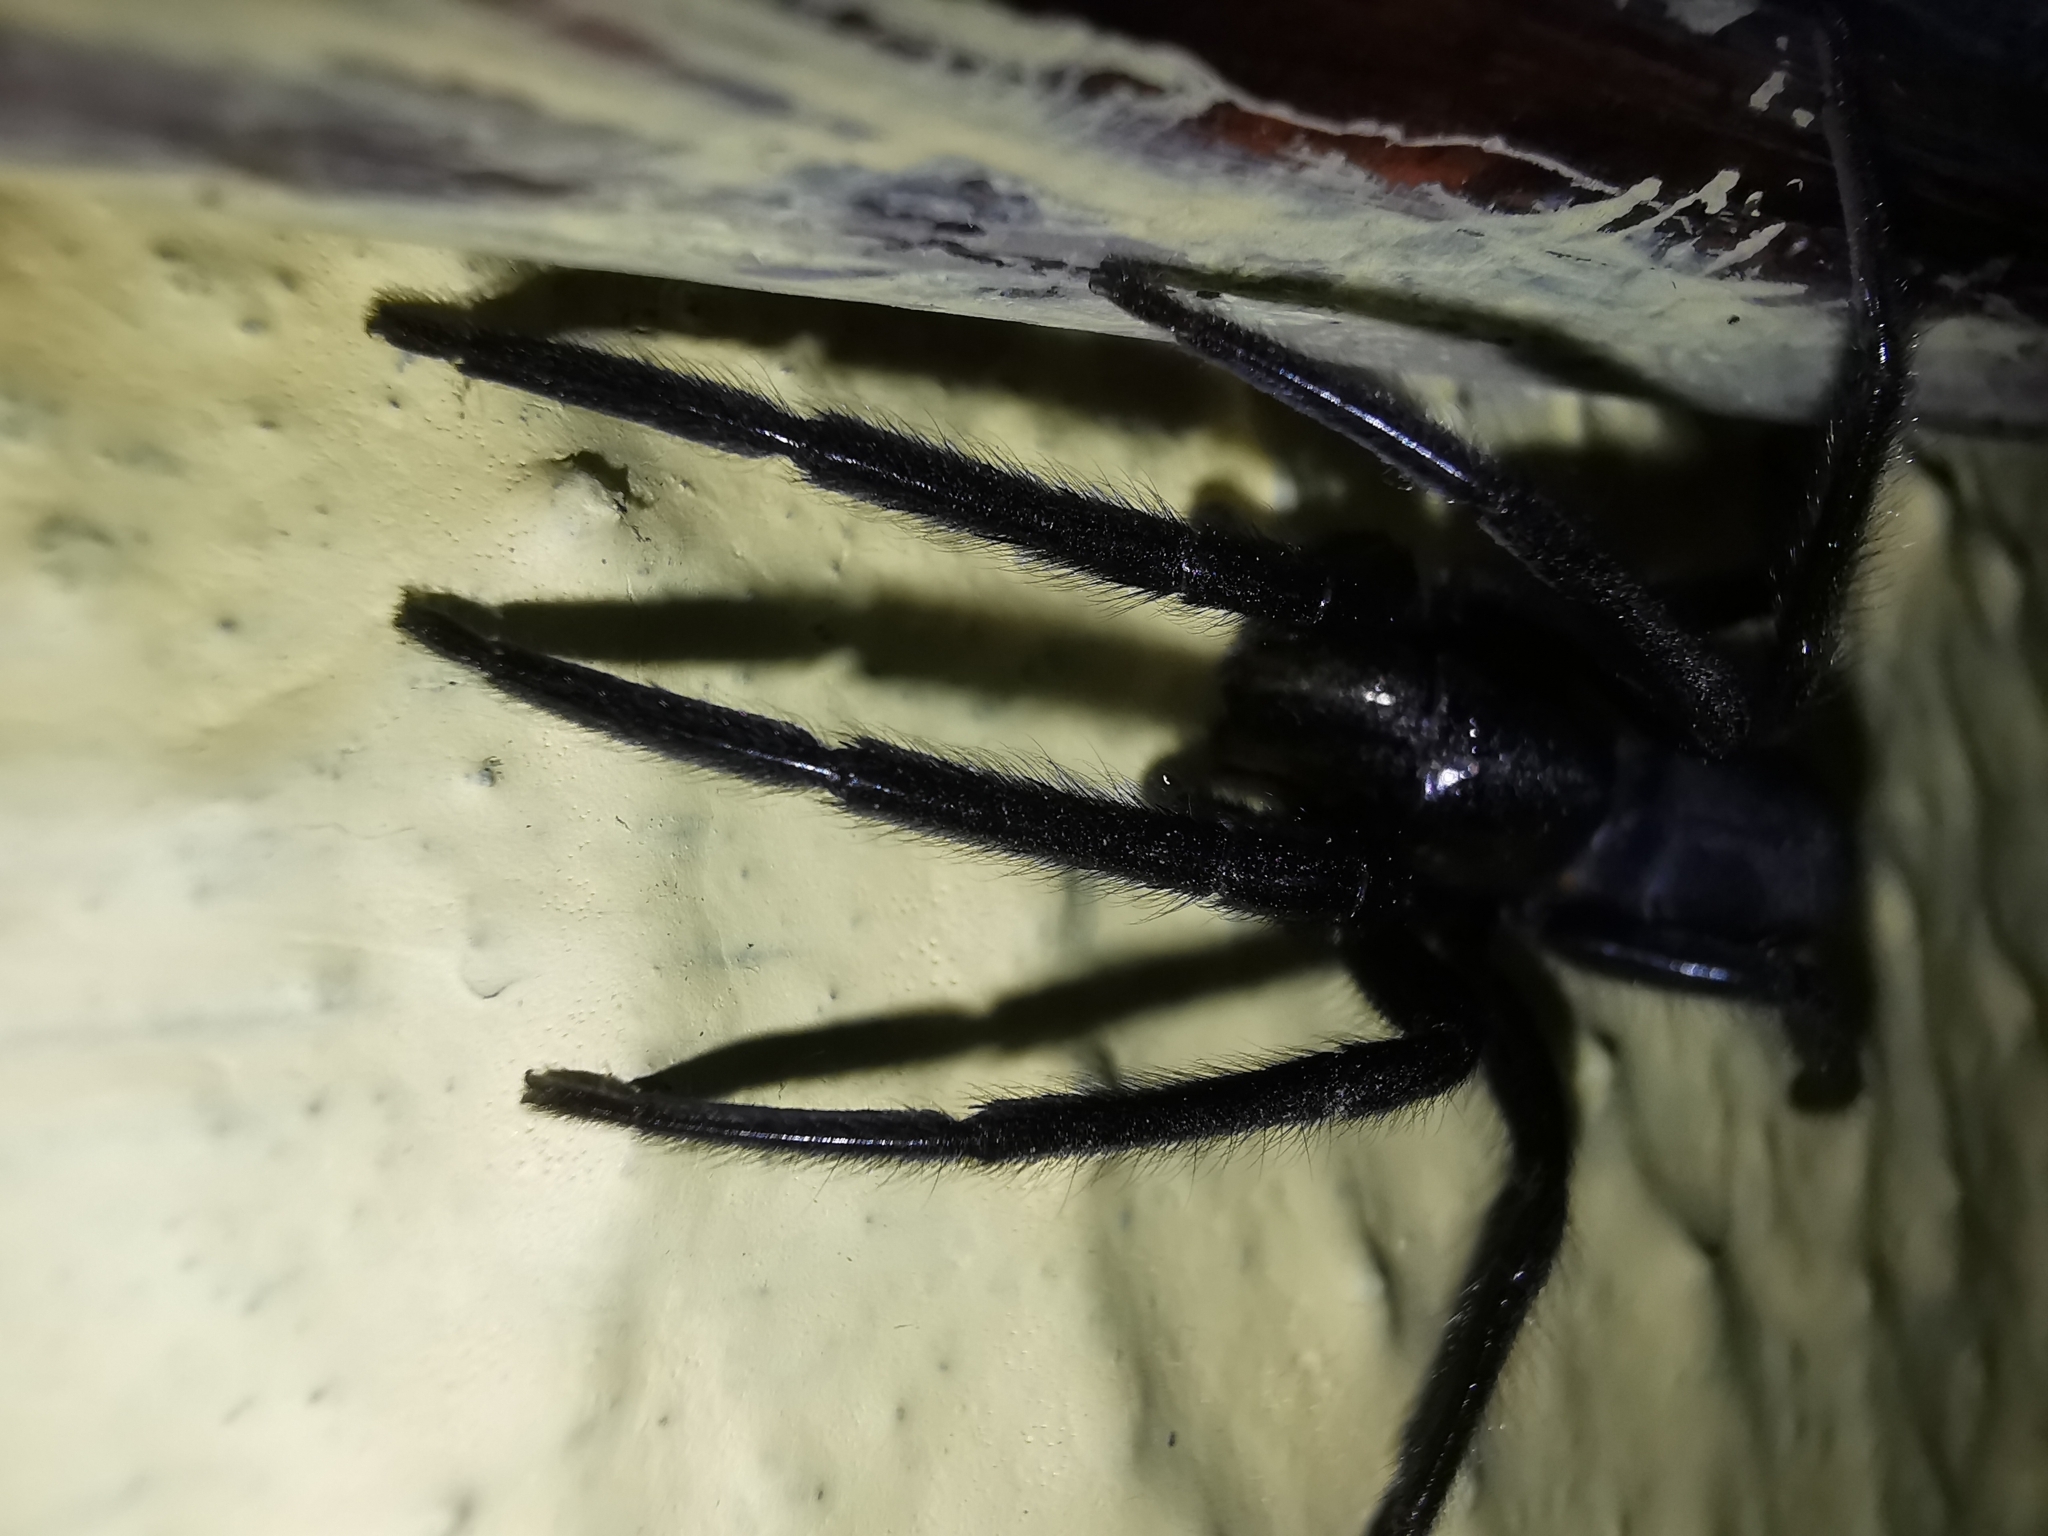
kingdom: Animalia
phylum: Arthropoda
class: Arachnida
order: Araneae
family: Segestriidae
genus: Segestria
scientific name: Segestria florentina
